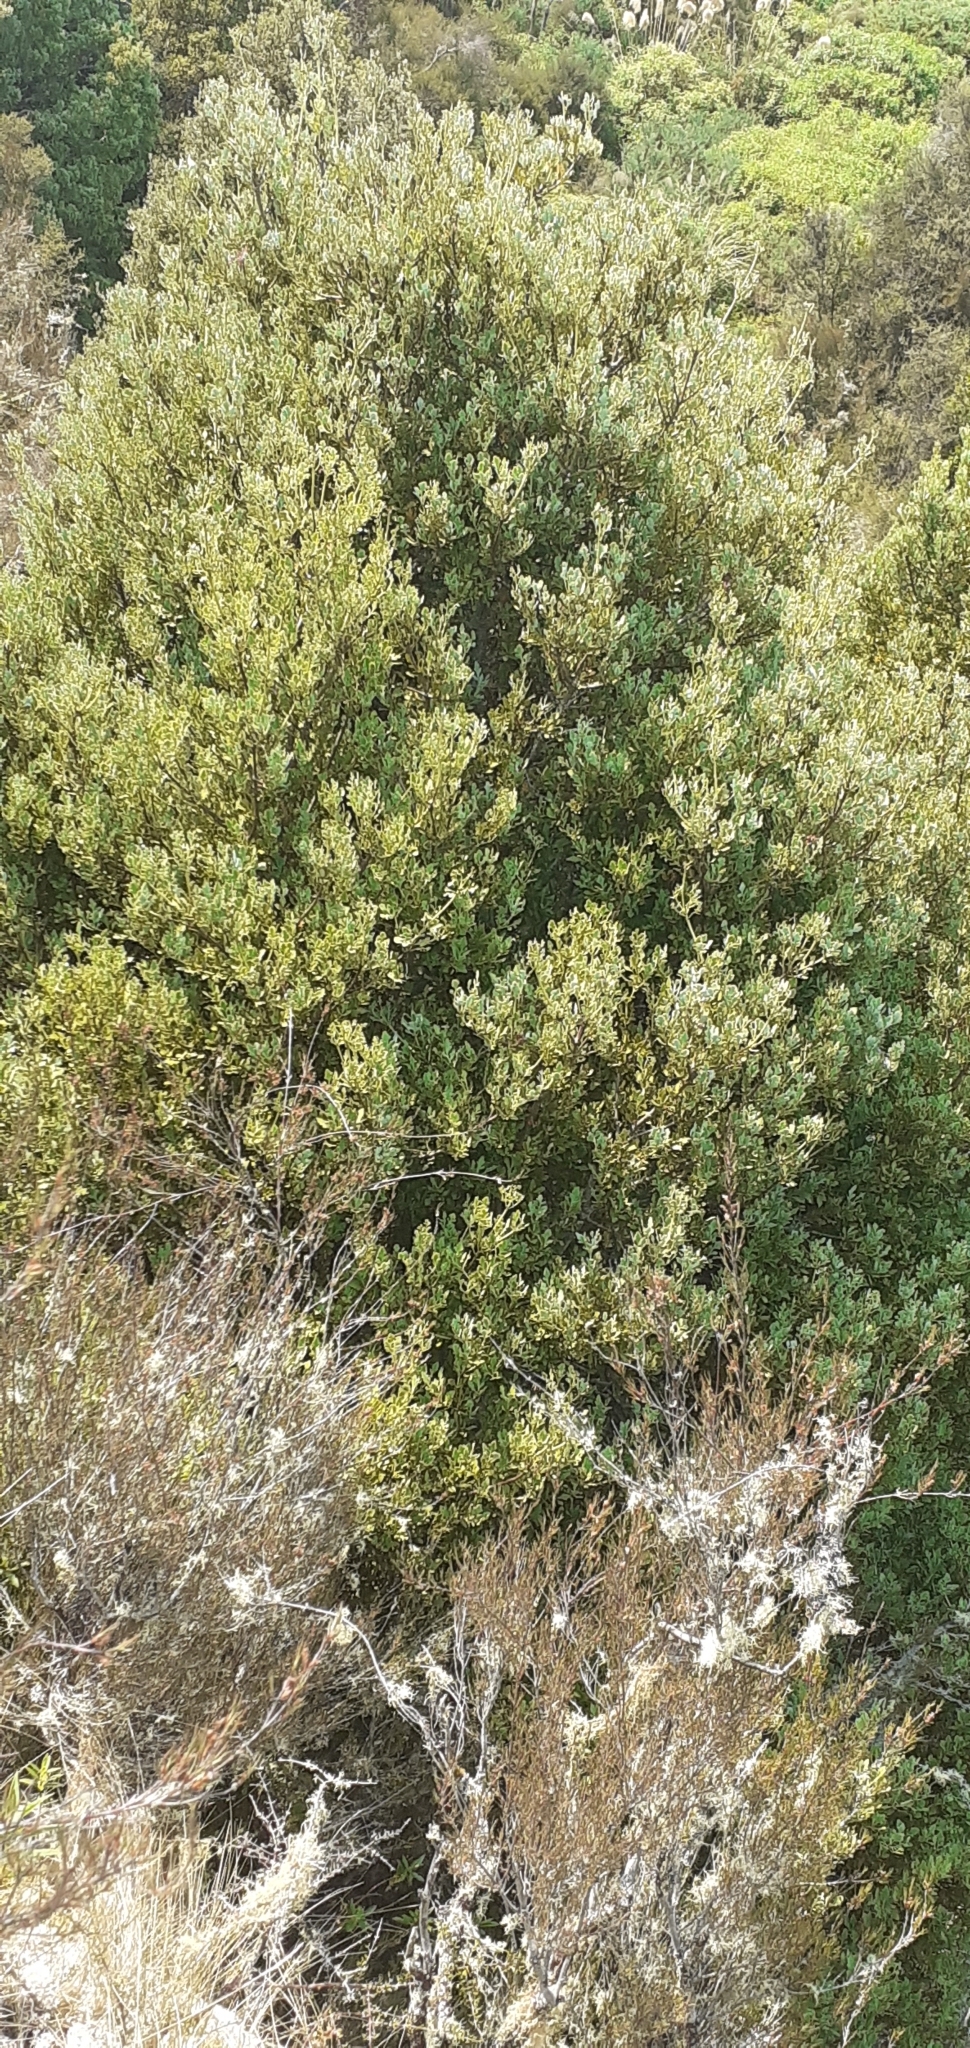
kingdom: Plantae
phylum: Tracheophyta
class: Pinopsida
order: Pinales
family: Phyllocladaceae
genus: Phyllocladus
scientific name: Phyllocladus trichomanoides
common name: Celery pine
